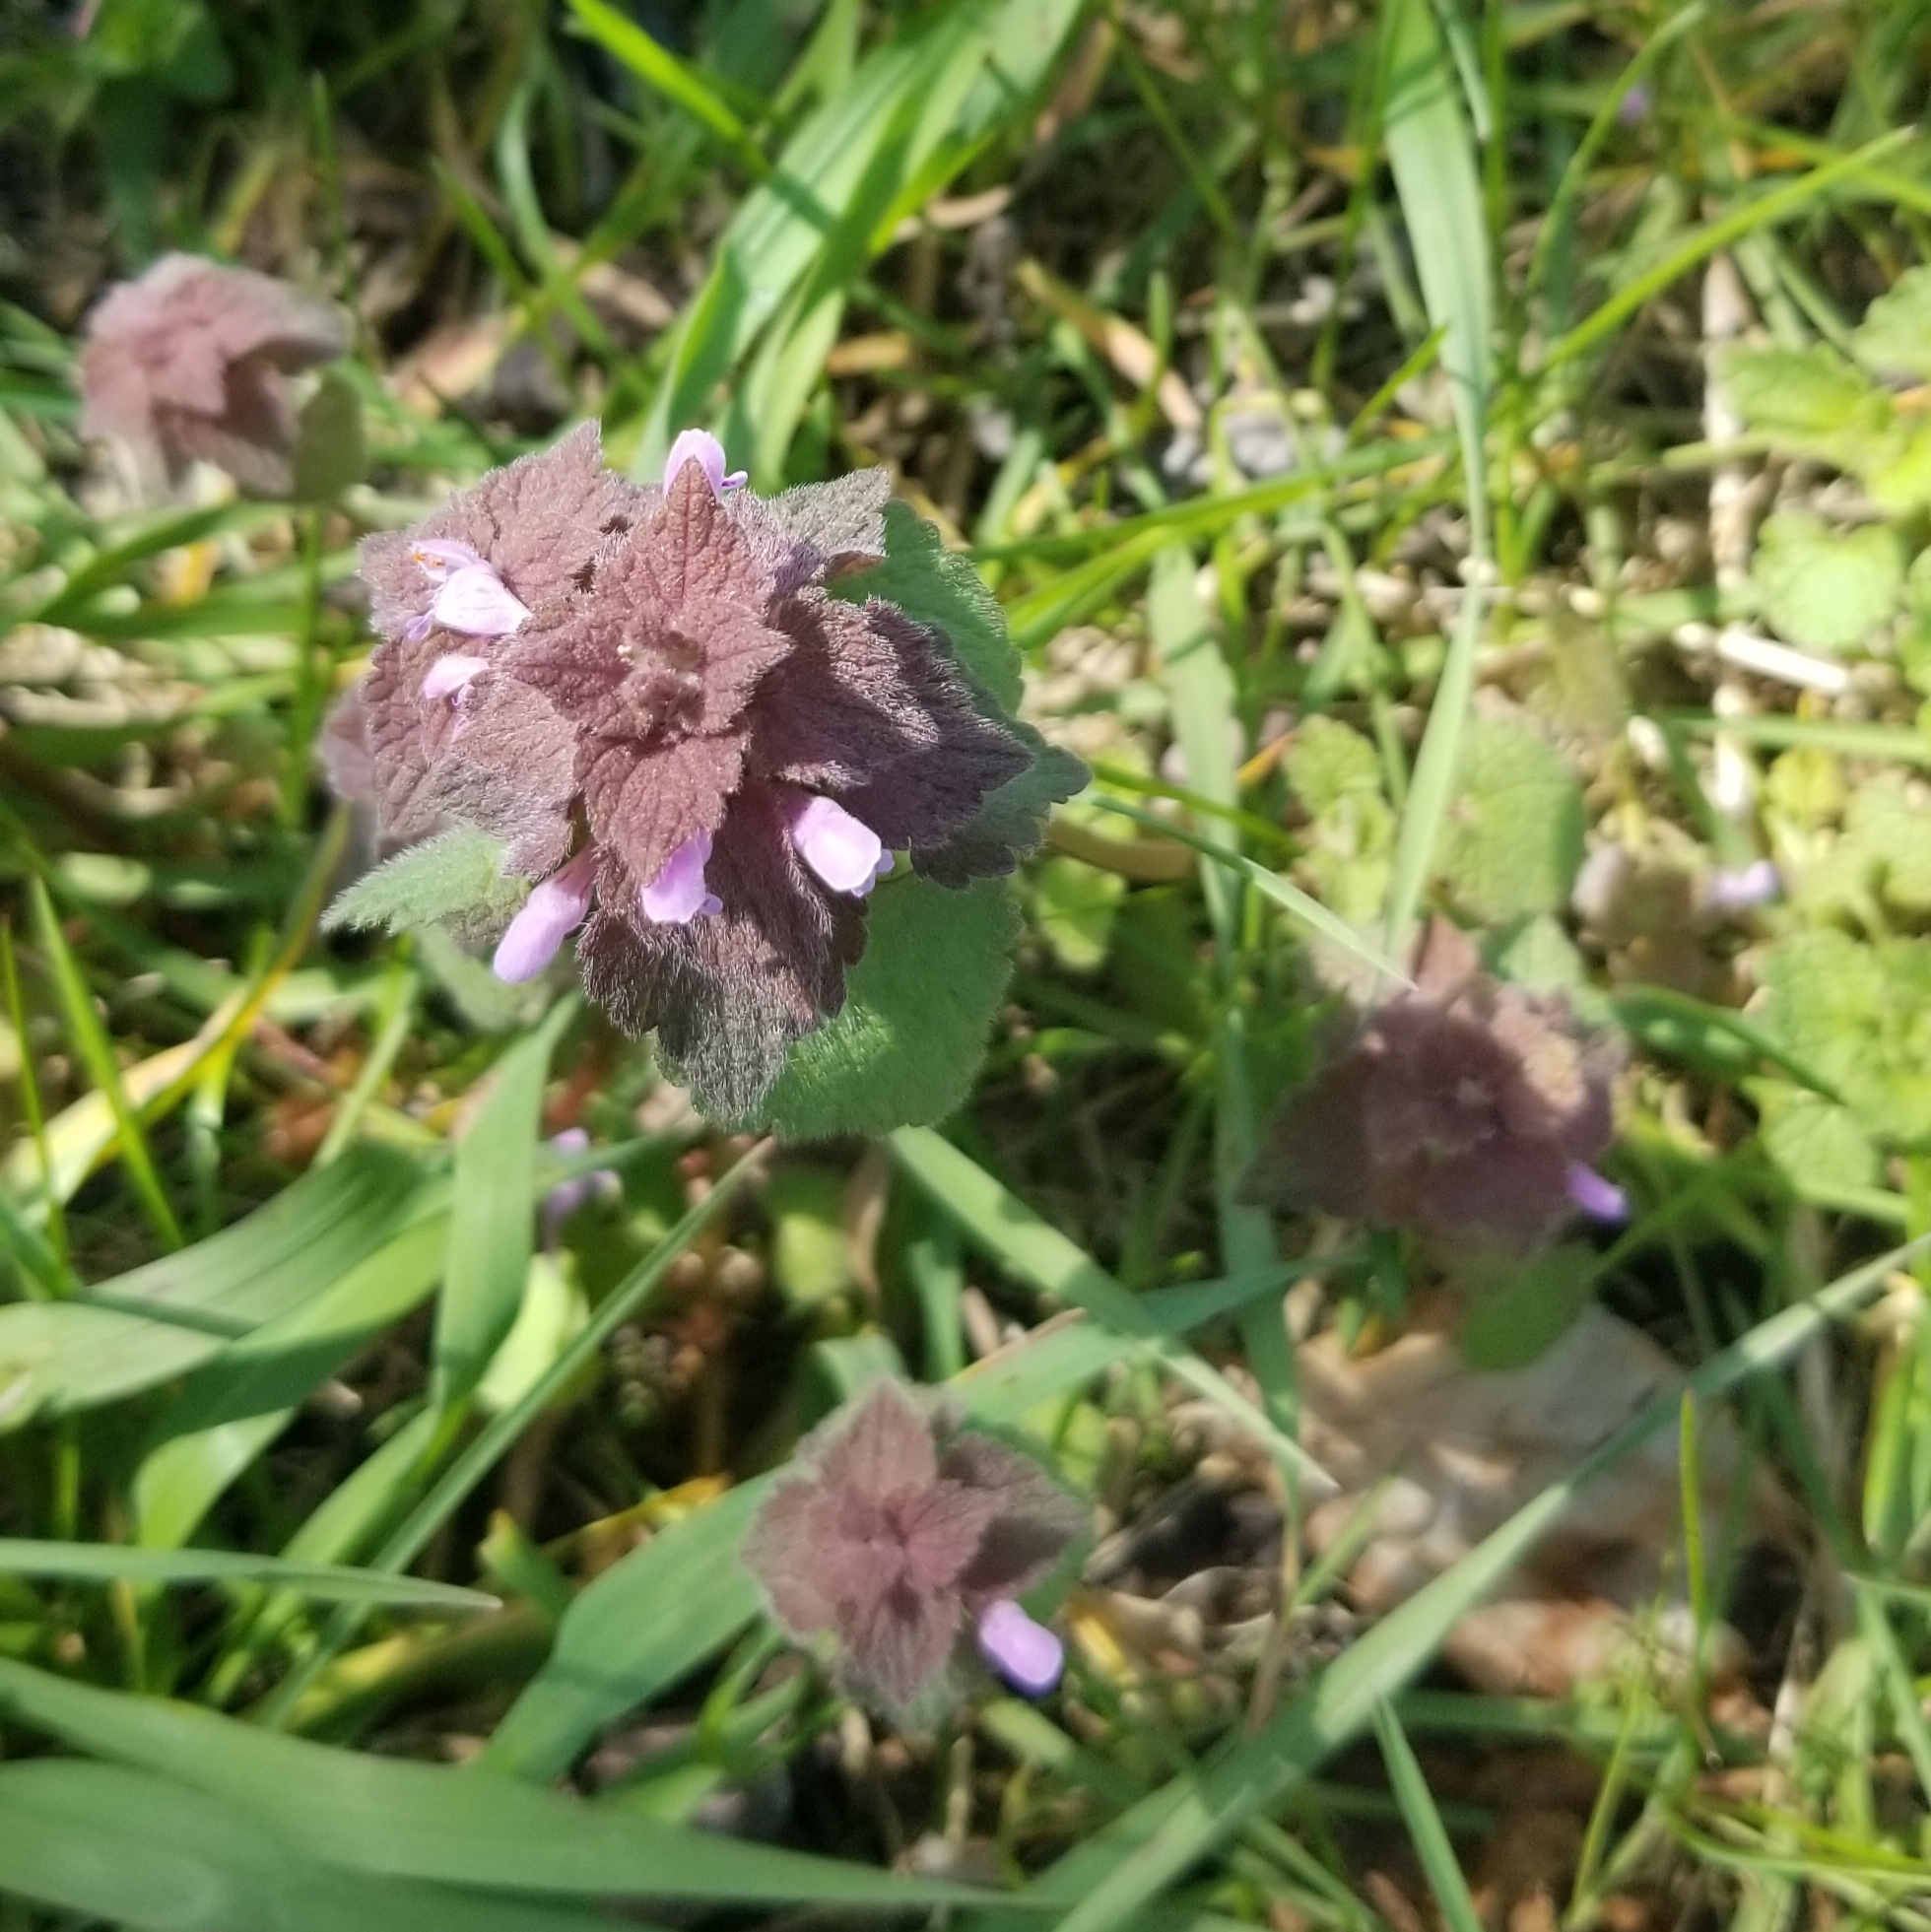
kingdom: Plantae
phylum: Tracheophyta
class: Magnoliopsida
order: Lamiales
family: Lamiaceae
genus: Lamium
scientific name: Lamium purpureum
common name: Red dead-nettle
